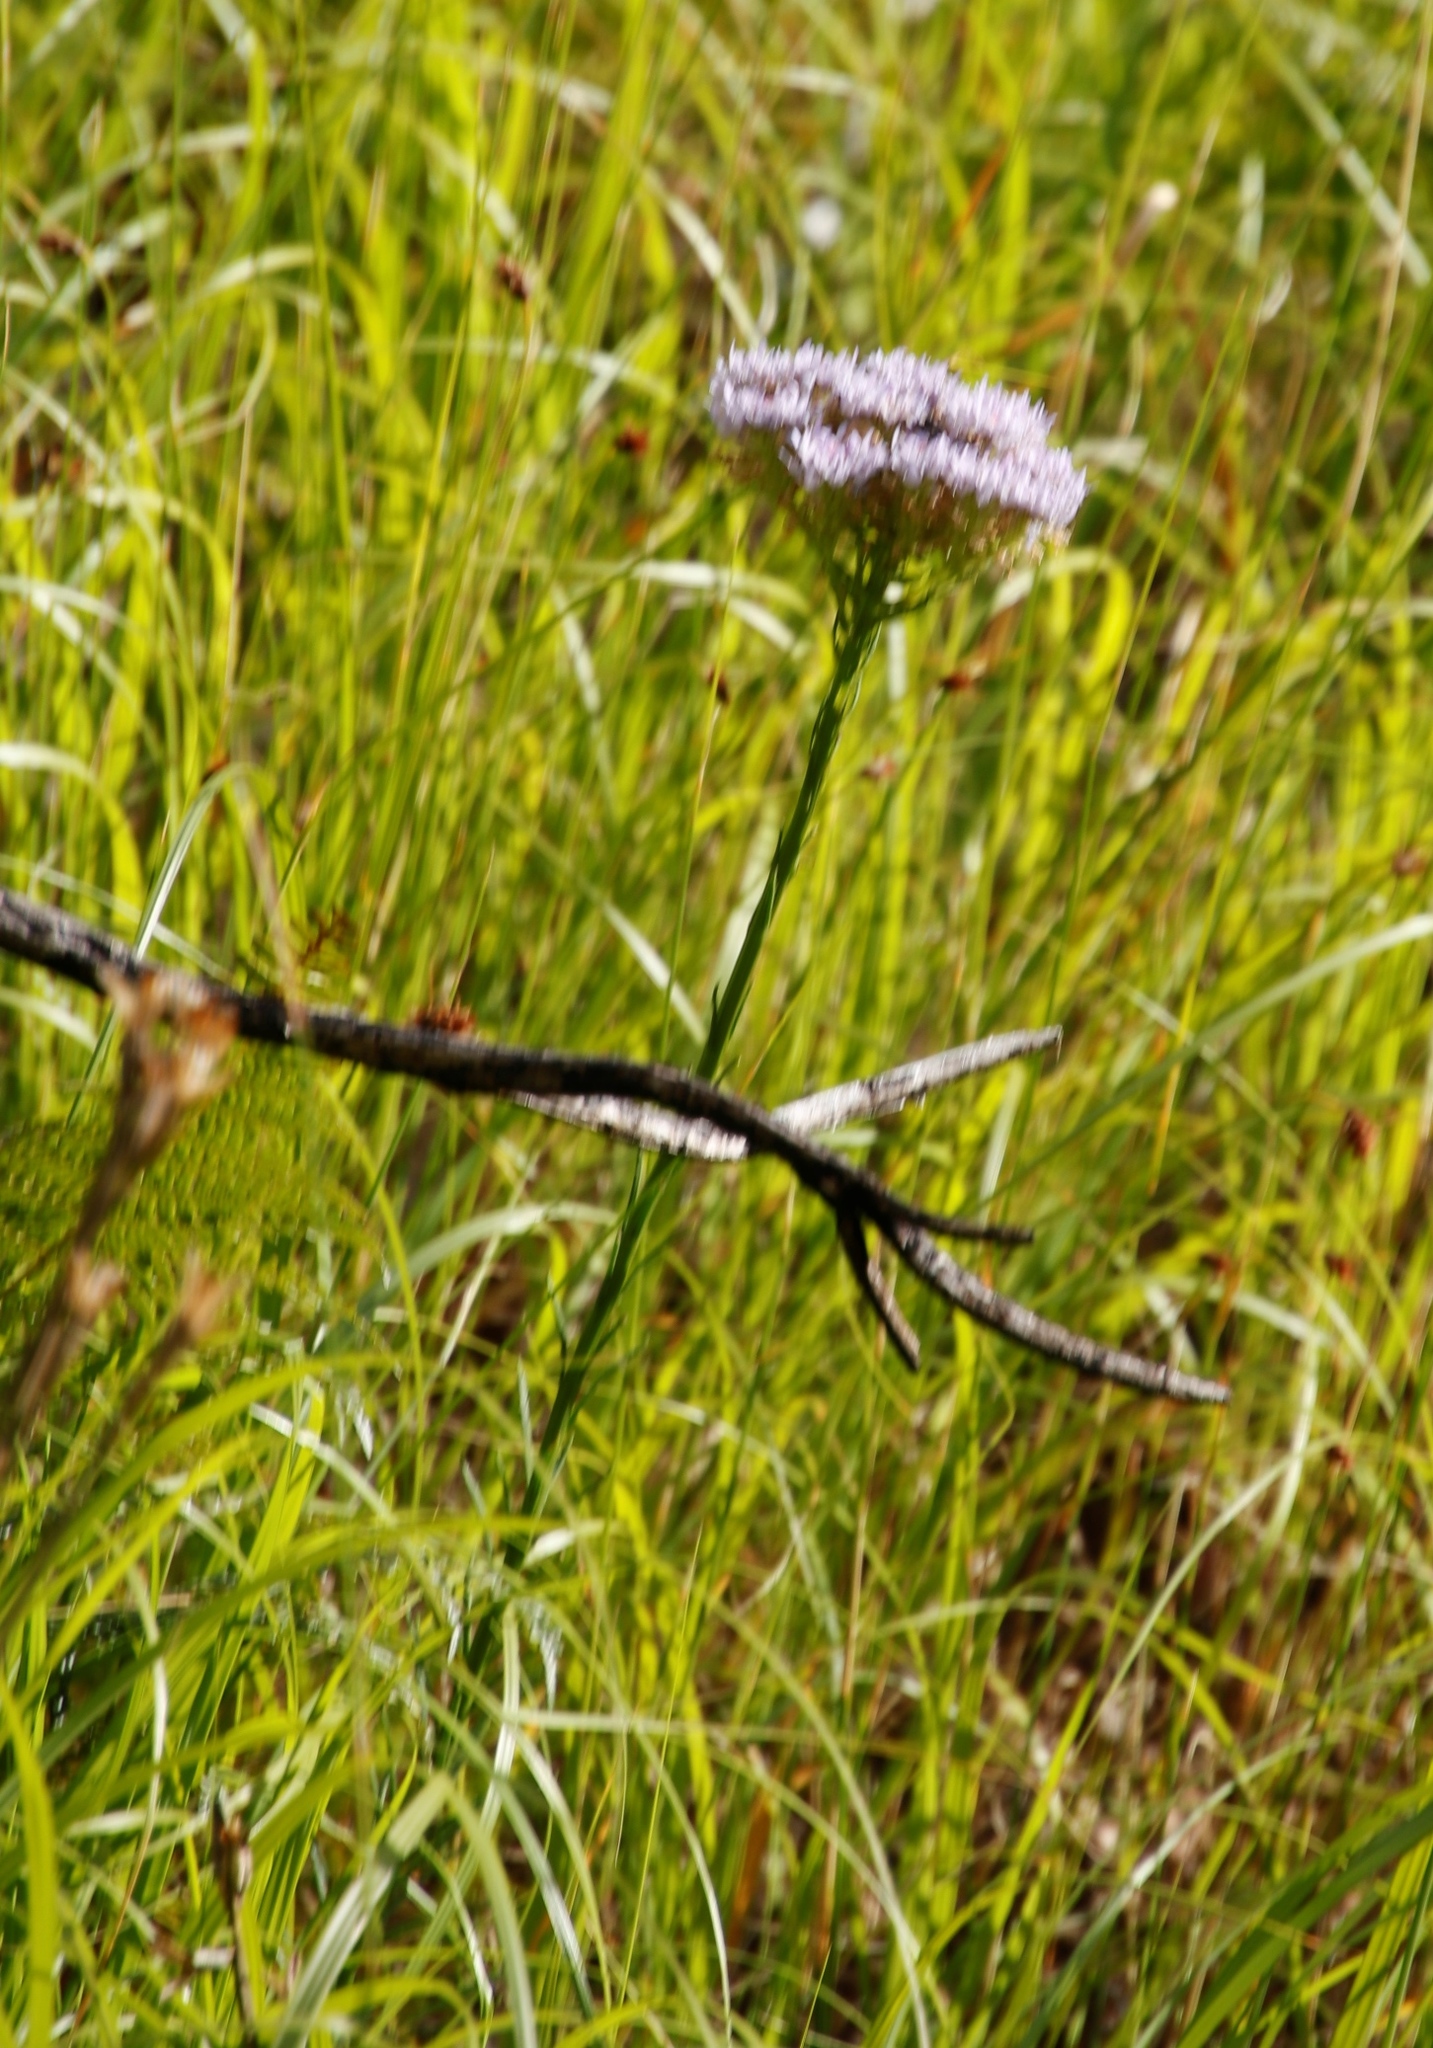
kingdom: Plantae
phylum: Tracheophyta
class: Magnoliopsida
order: Lamiales
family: Scrophulariaceae
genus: Pseudoselago
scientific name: Pseudoselago spuria
